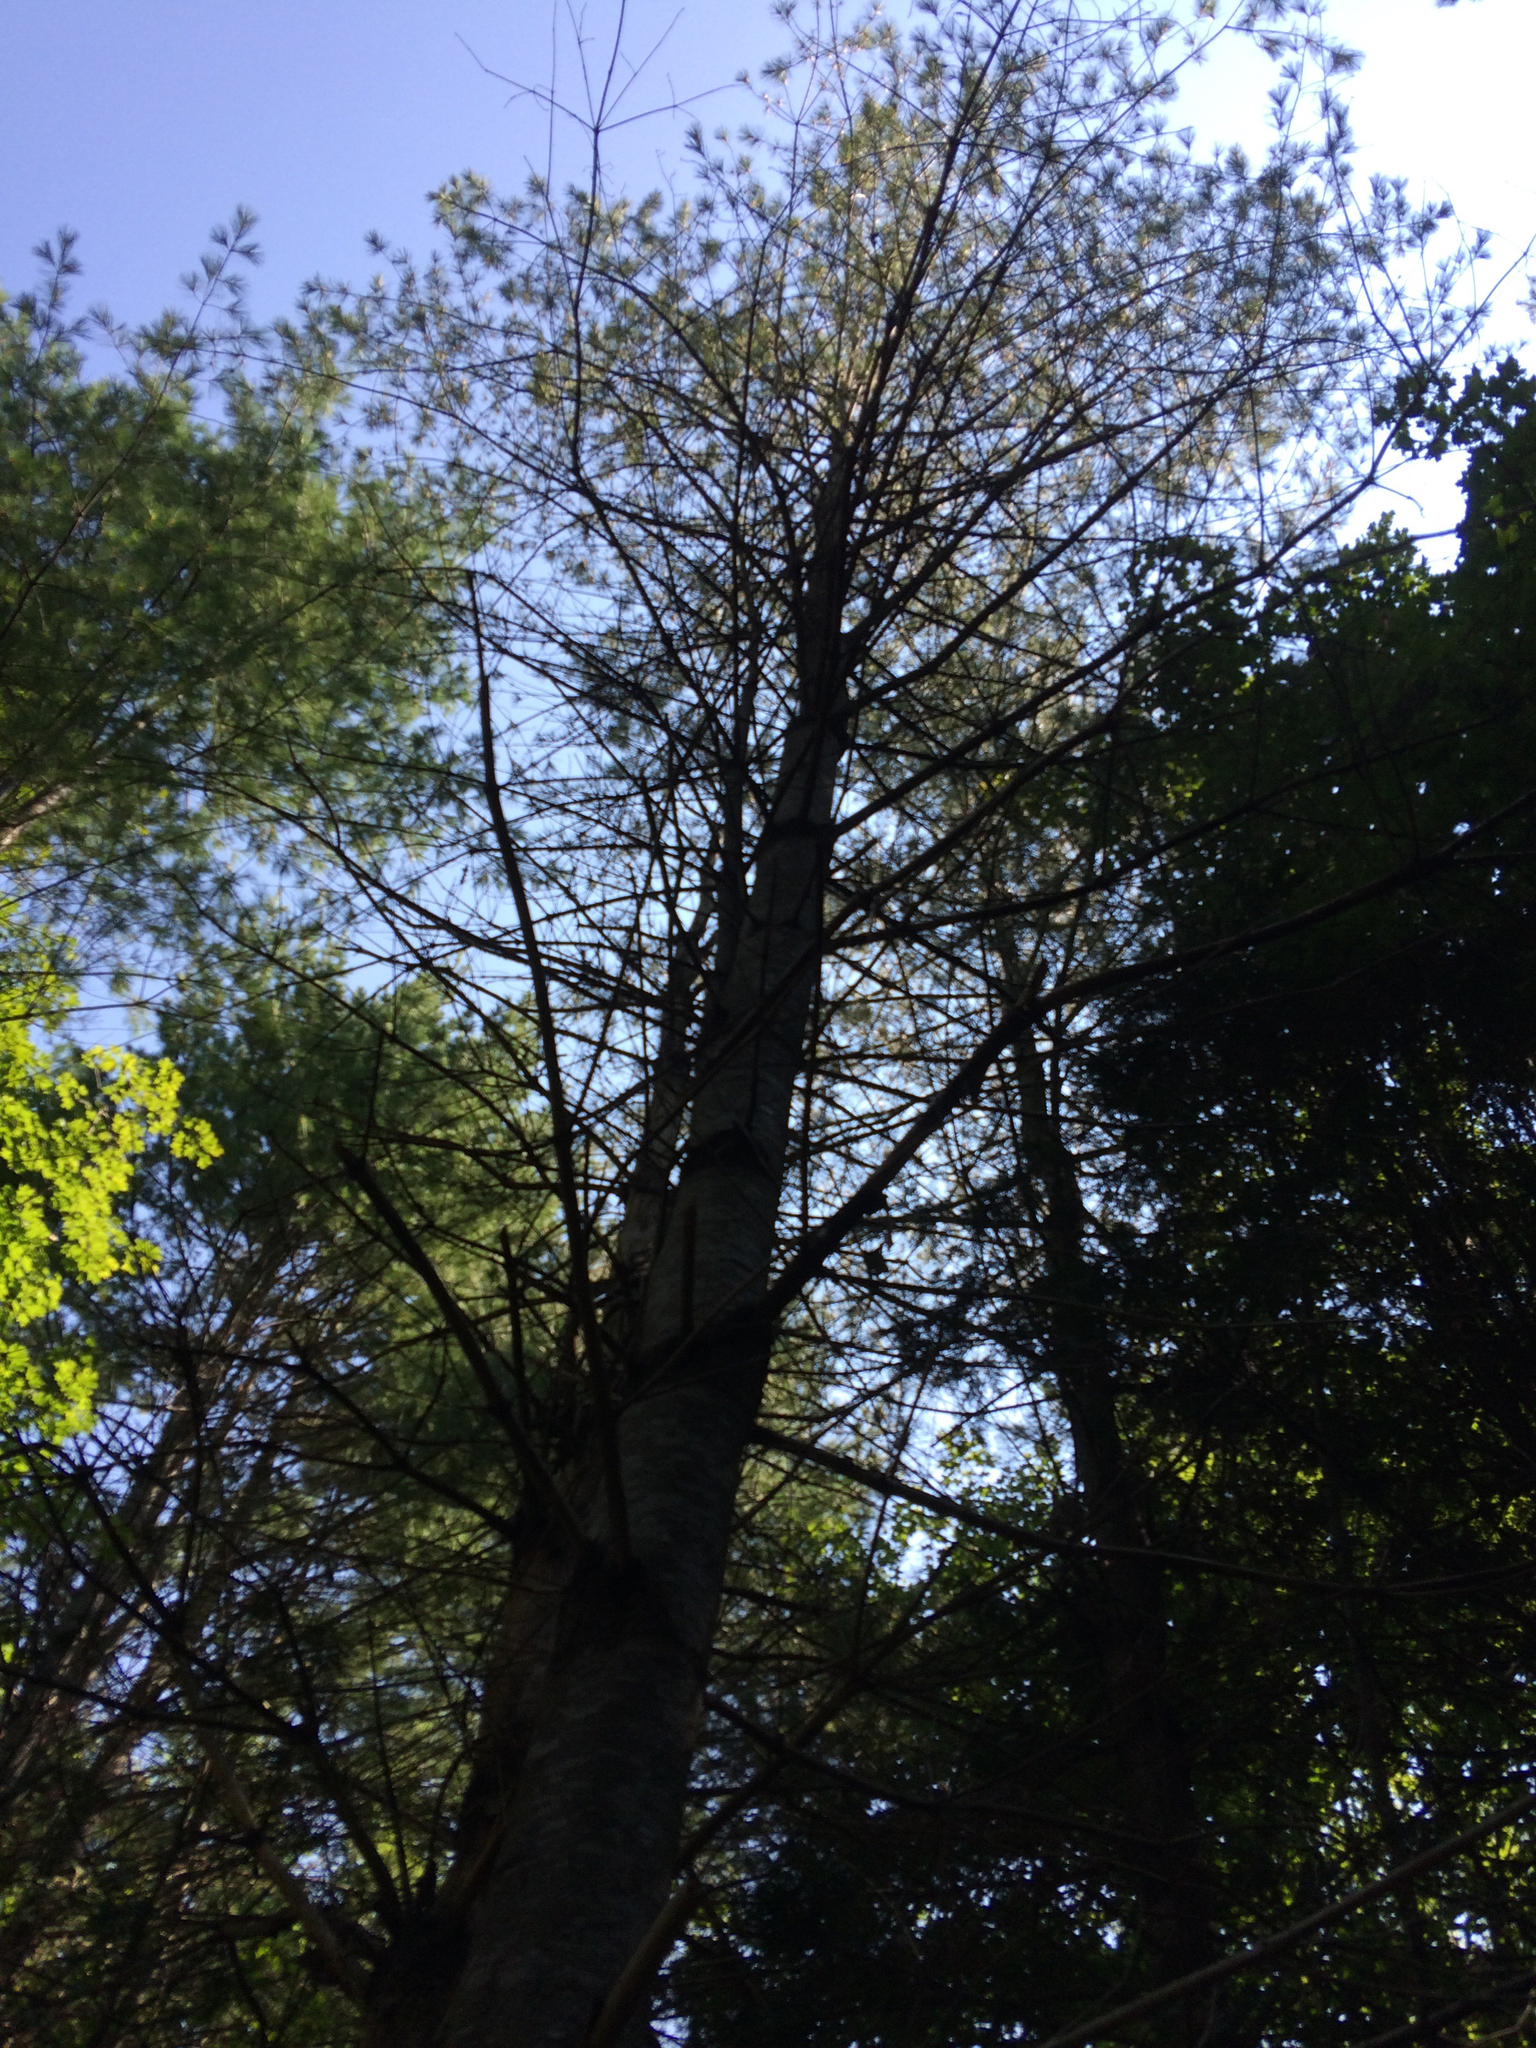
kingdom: Plantae
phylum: Tracheophyta
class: Pinopsida
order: Pinales
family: Pinaceae
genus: Pinus
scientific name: Pinus strobus
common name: Weymouth pine
